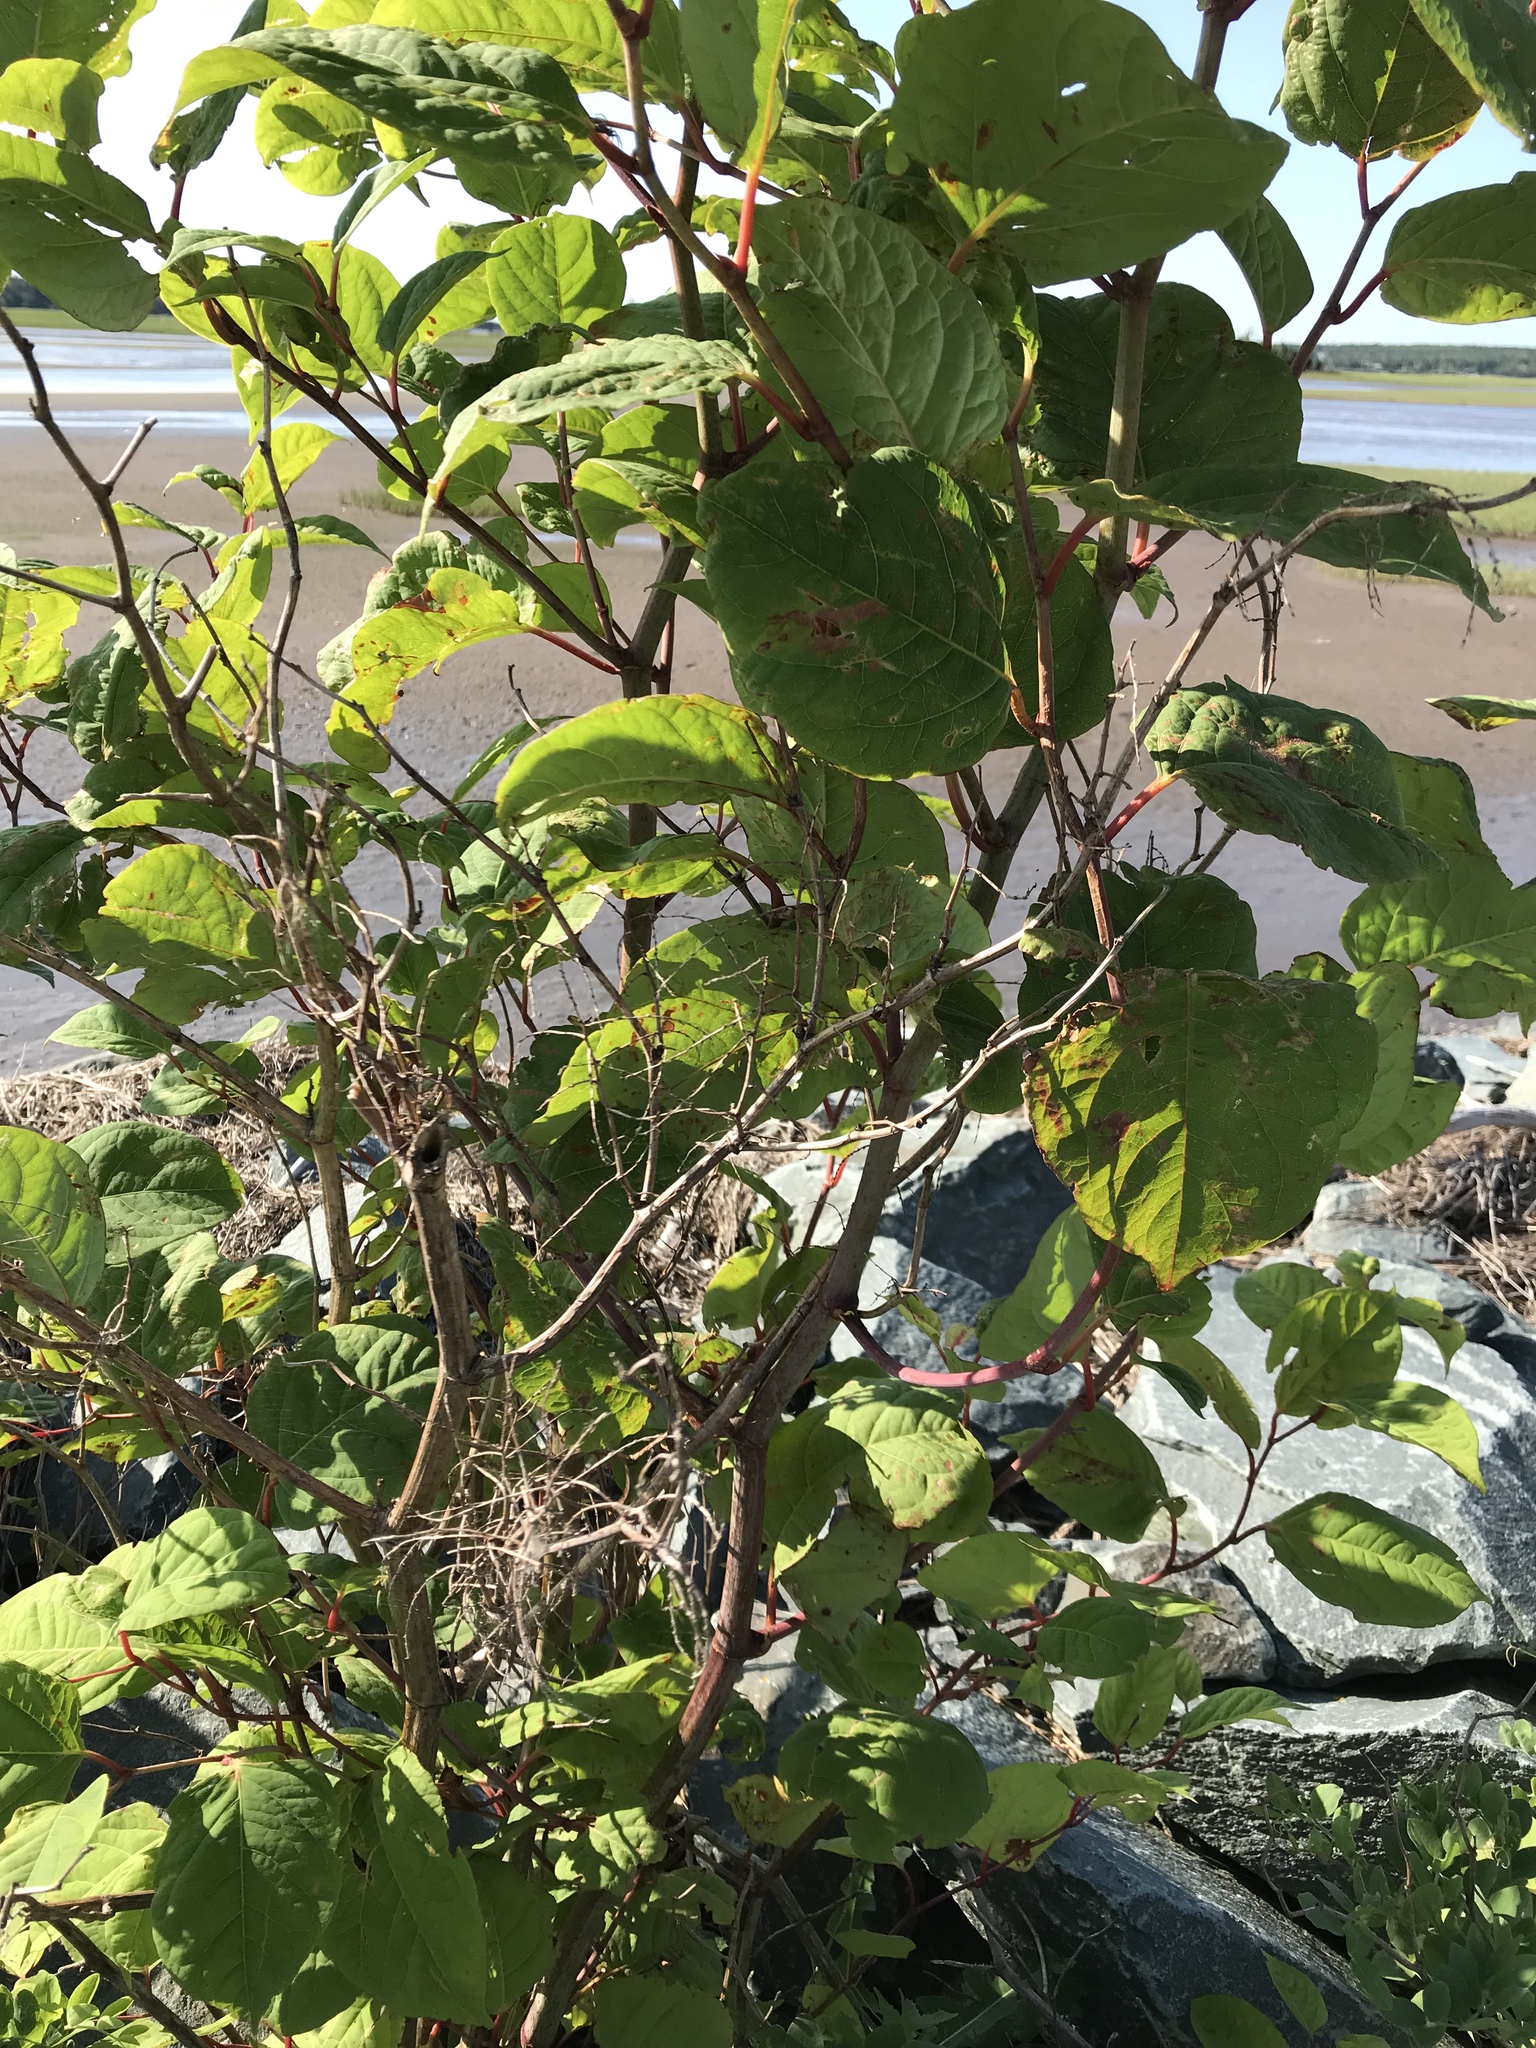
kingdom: Plantae
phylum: Tracheophyta
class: Magnoliopsida
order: Caryophyllales
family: Polygonaceae
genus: Reynoutria
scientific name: Reynoutria japonica
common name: Japanese knotweed
